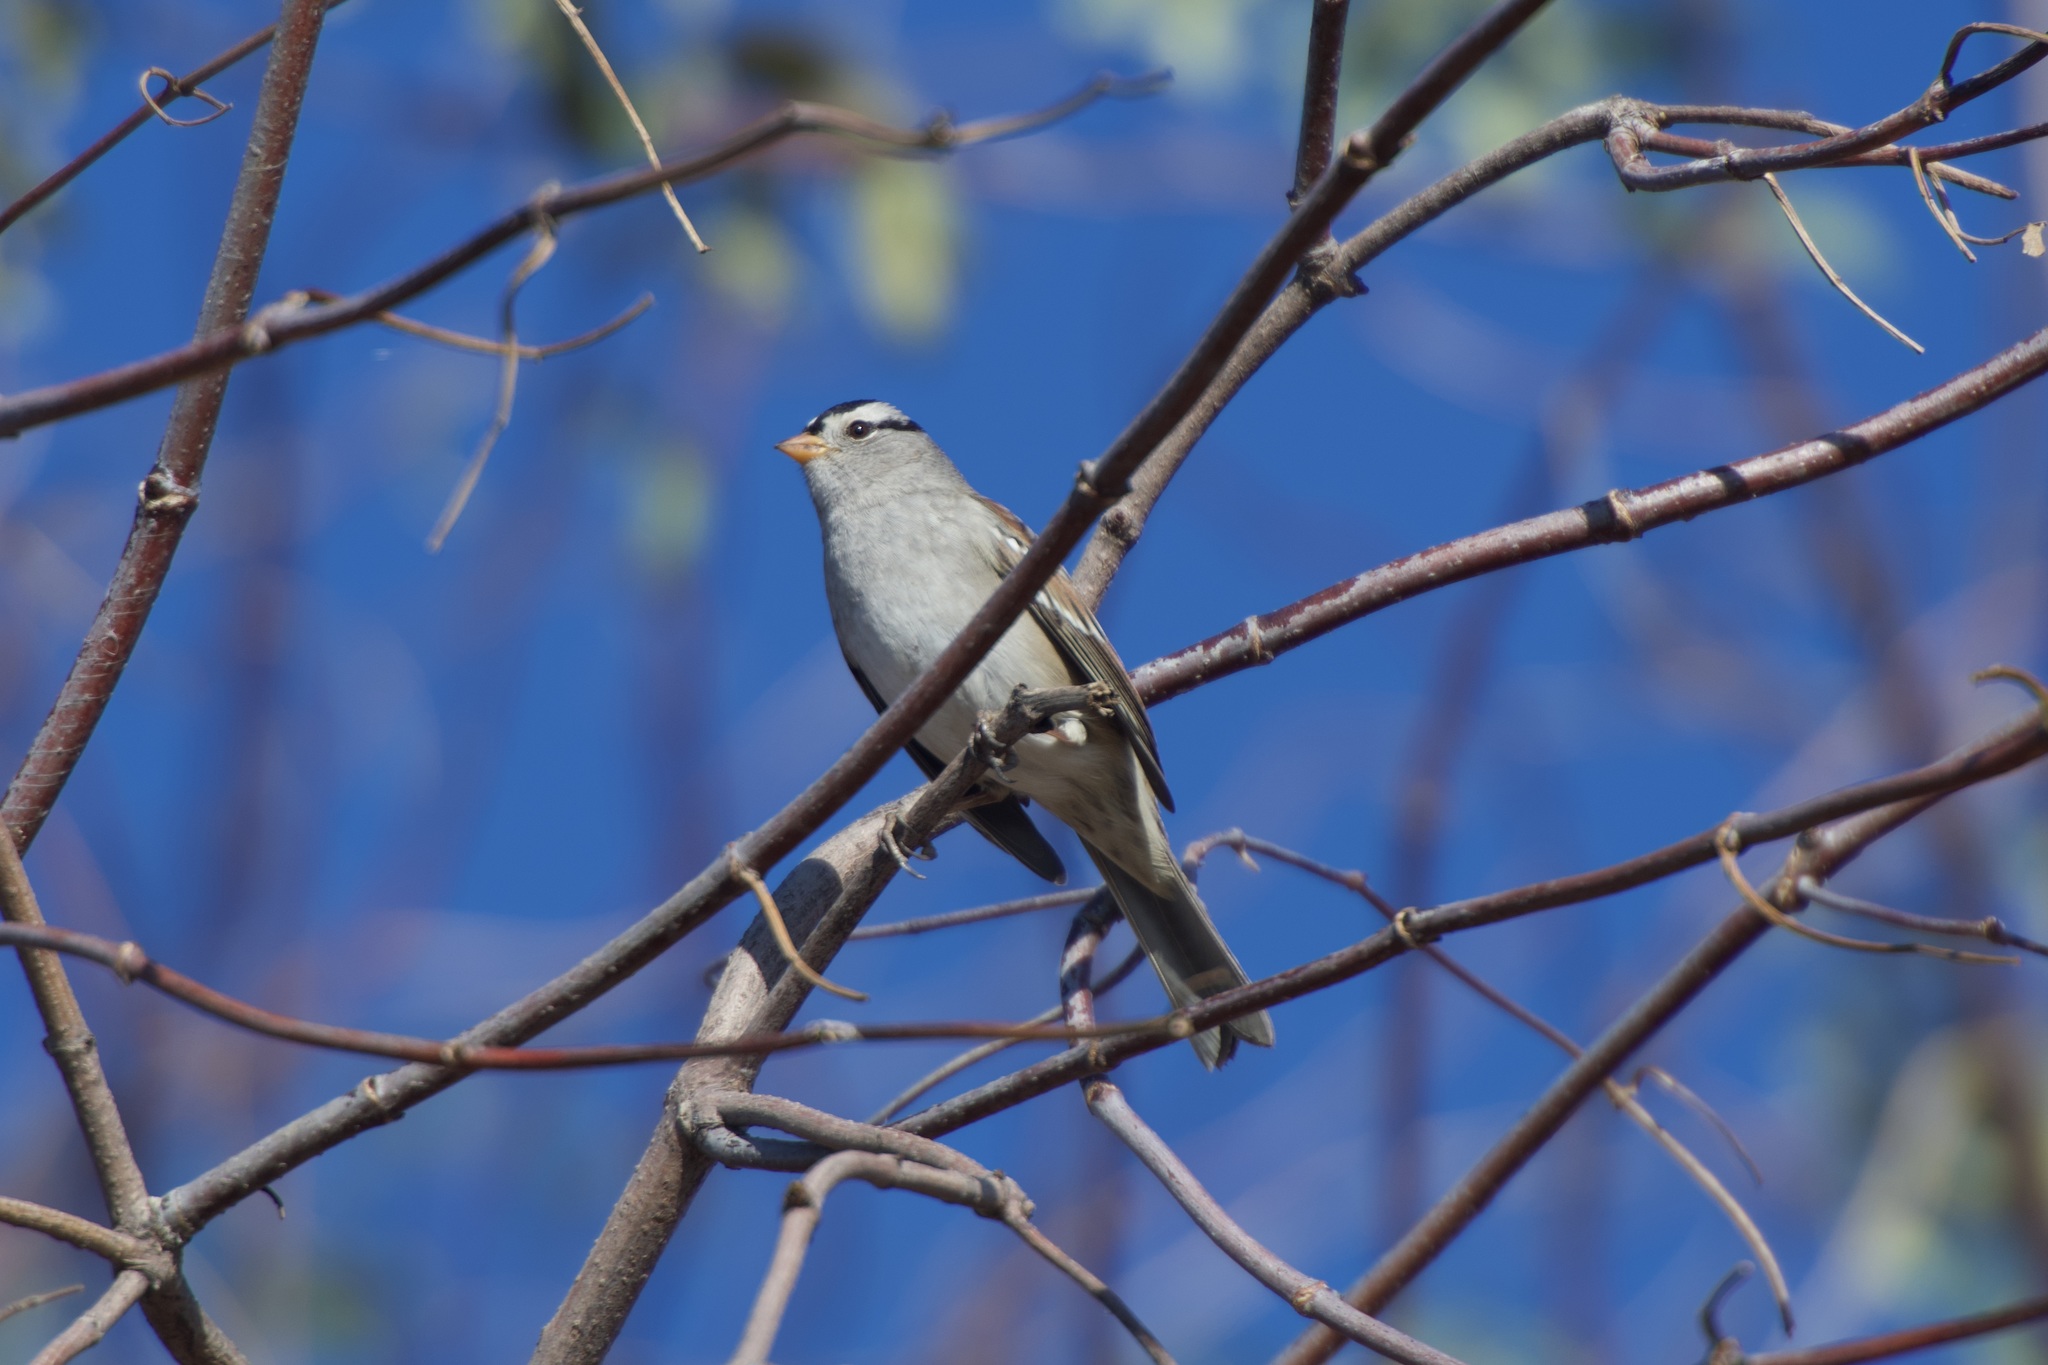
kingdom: Animalia
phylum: Chordata
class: Aves
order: Passeriformes
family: Passerellidae
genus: Zonotrichia
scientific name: Zonotrichia leucophrys
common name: White-crowned sparrow
